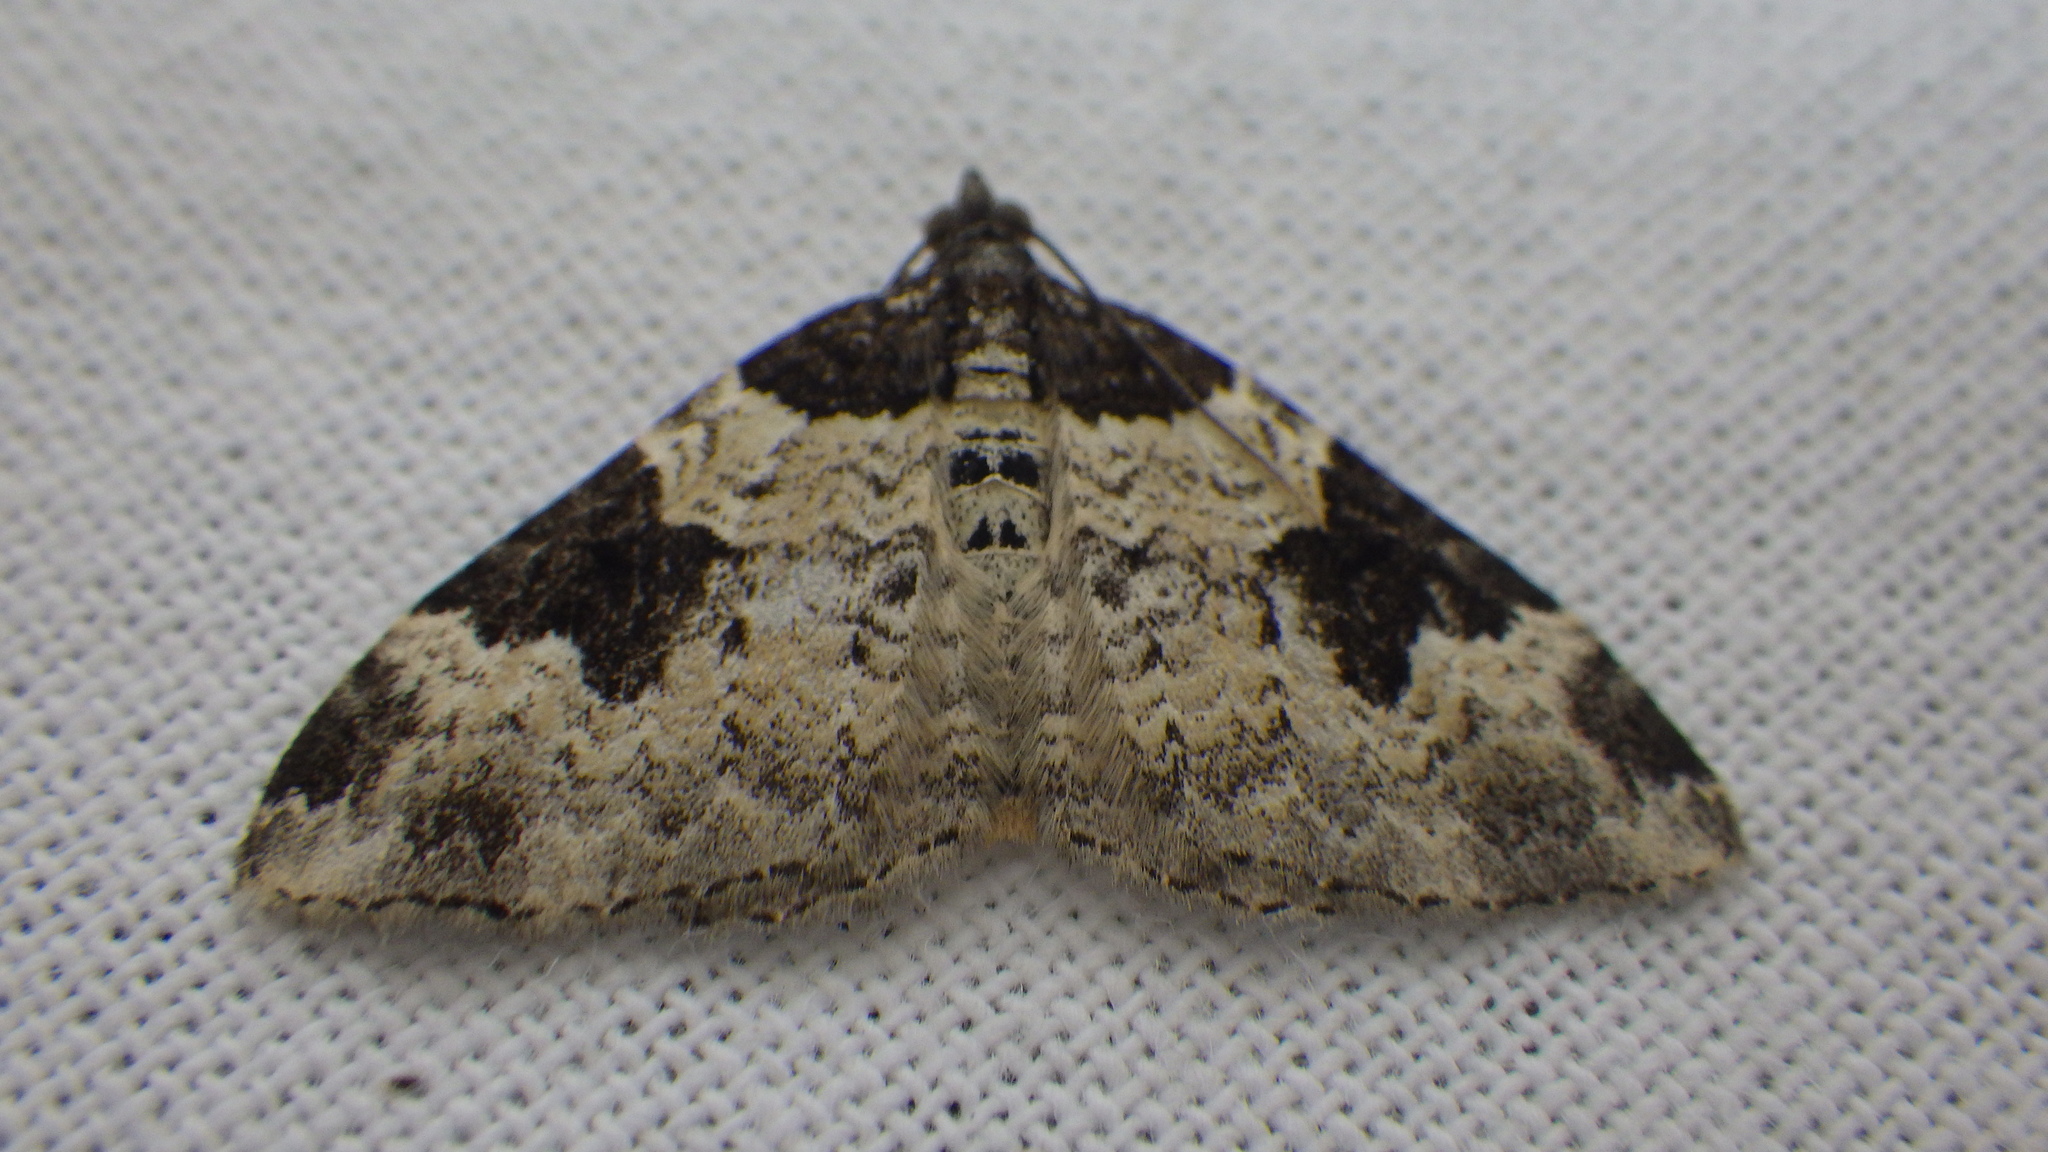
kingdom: Animalia
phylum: Arthropoda
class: Insecta
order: Lepidoptera
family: Geometridae
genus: Xanthorhoe
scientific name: Xanthorhoe fluctuata
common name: Garden carpet
